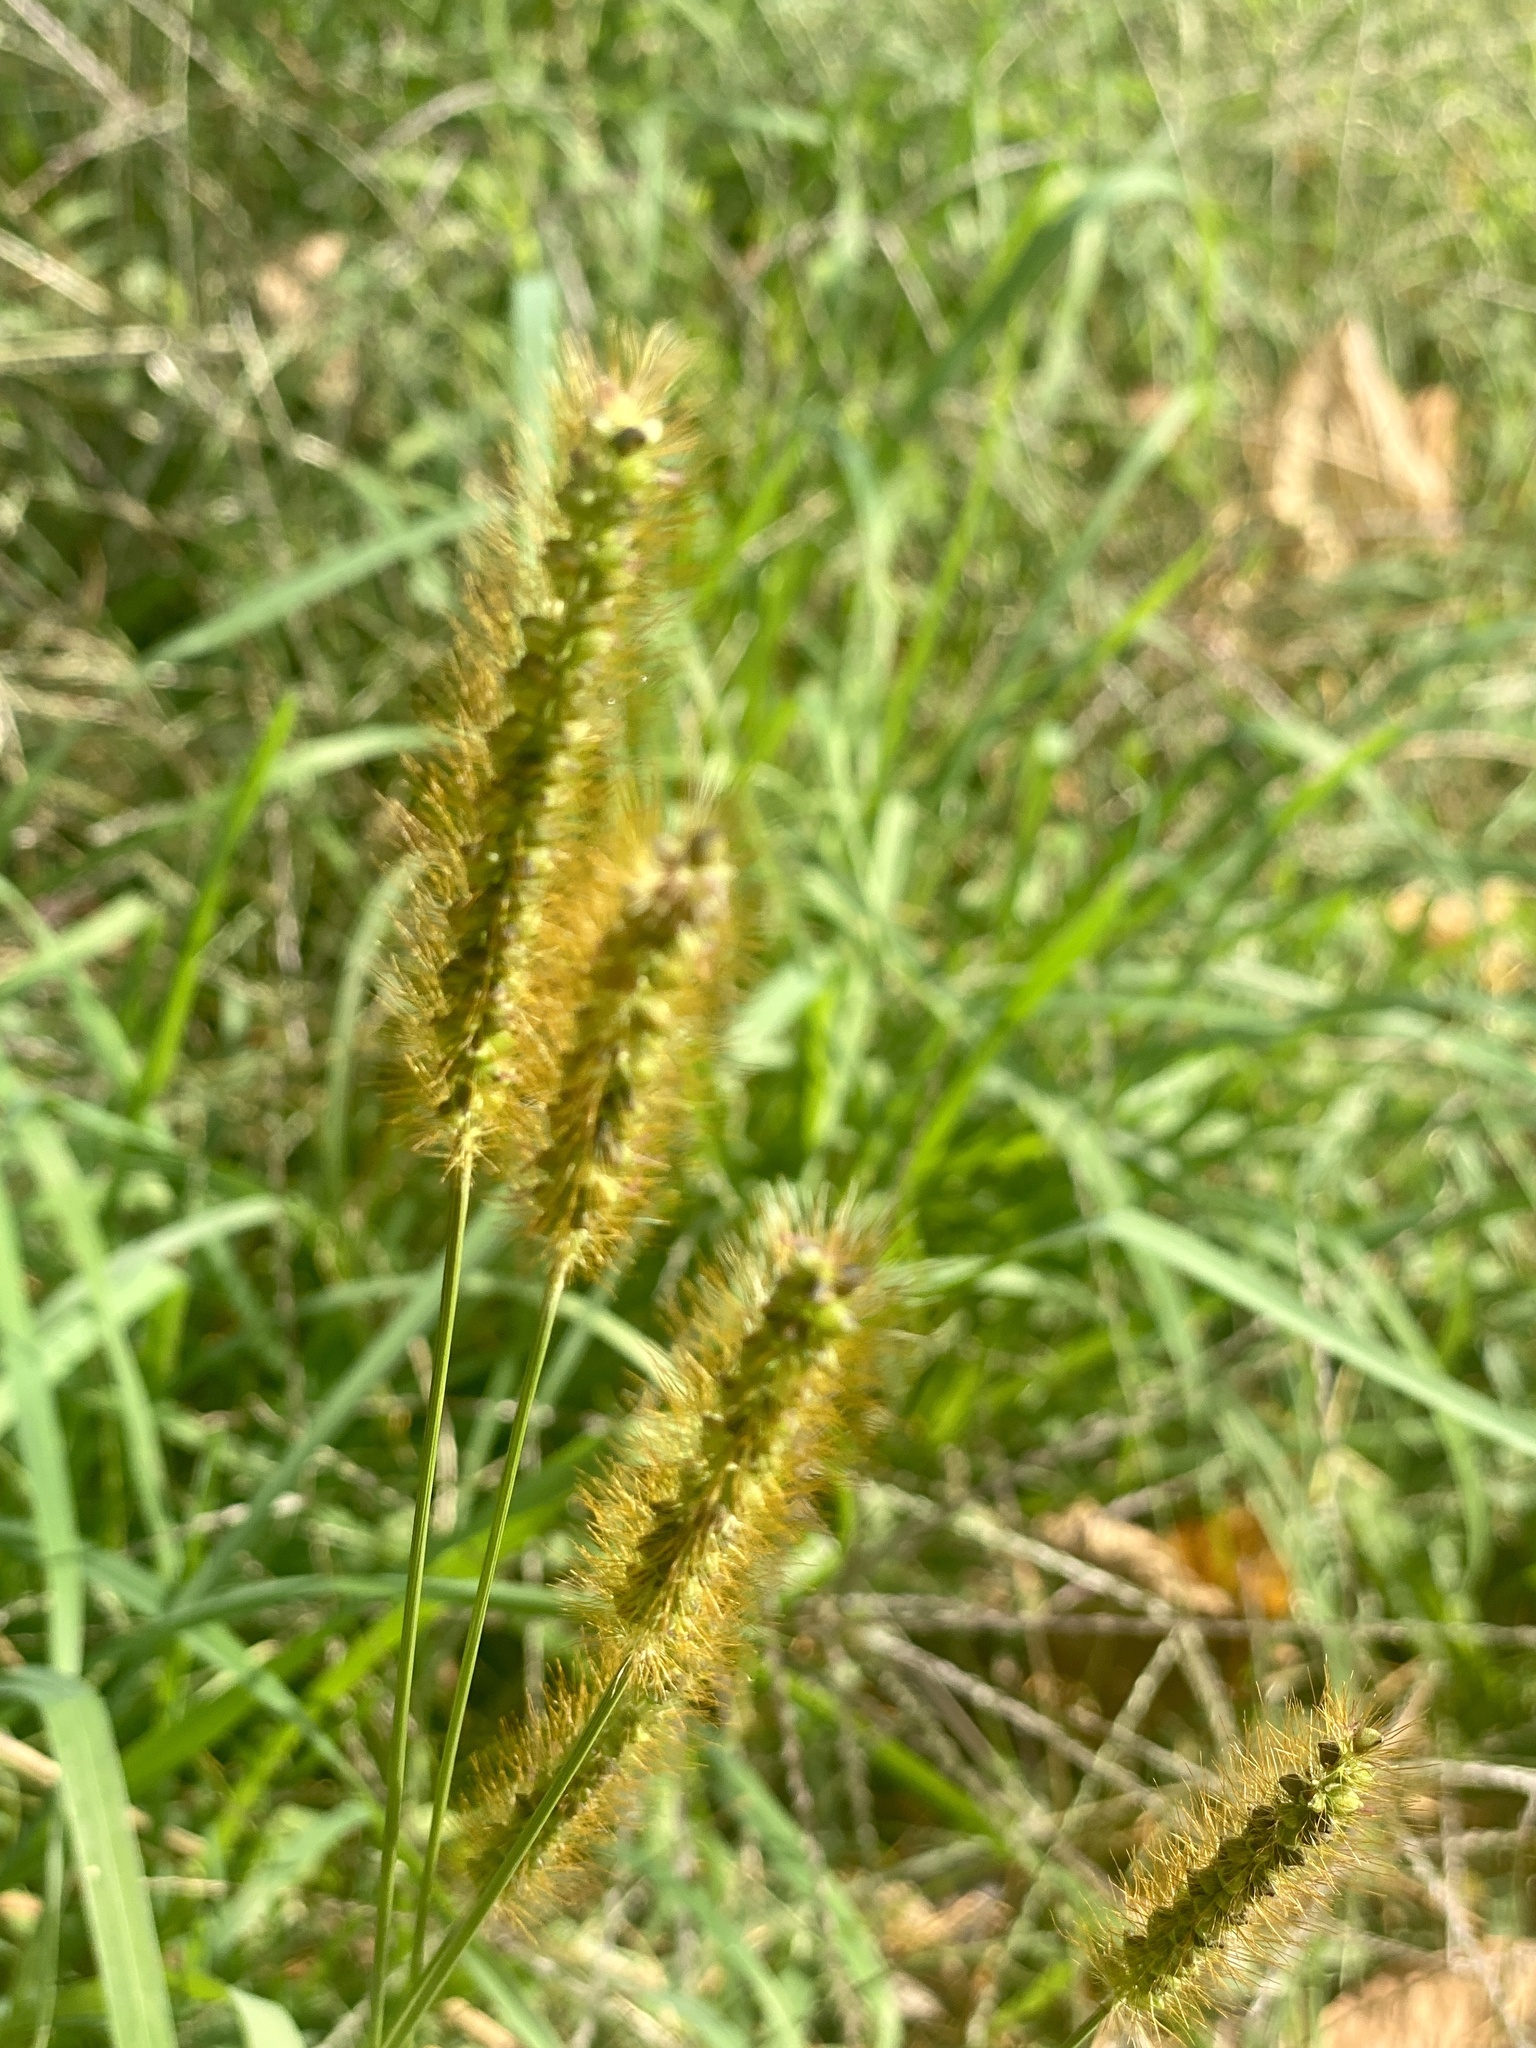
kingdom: Plantae
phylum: Tracheophyta
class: Liliopsida
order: Poales
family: Poaceae
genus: Setaria
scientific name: Setaria pumila
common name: Yellow bristle-grass
